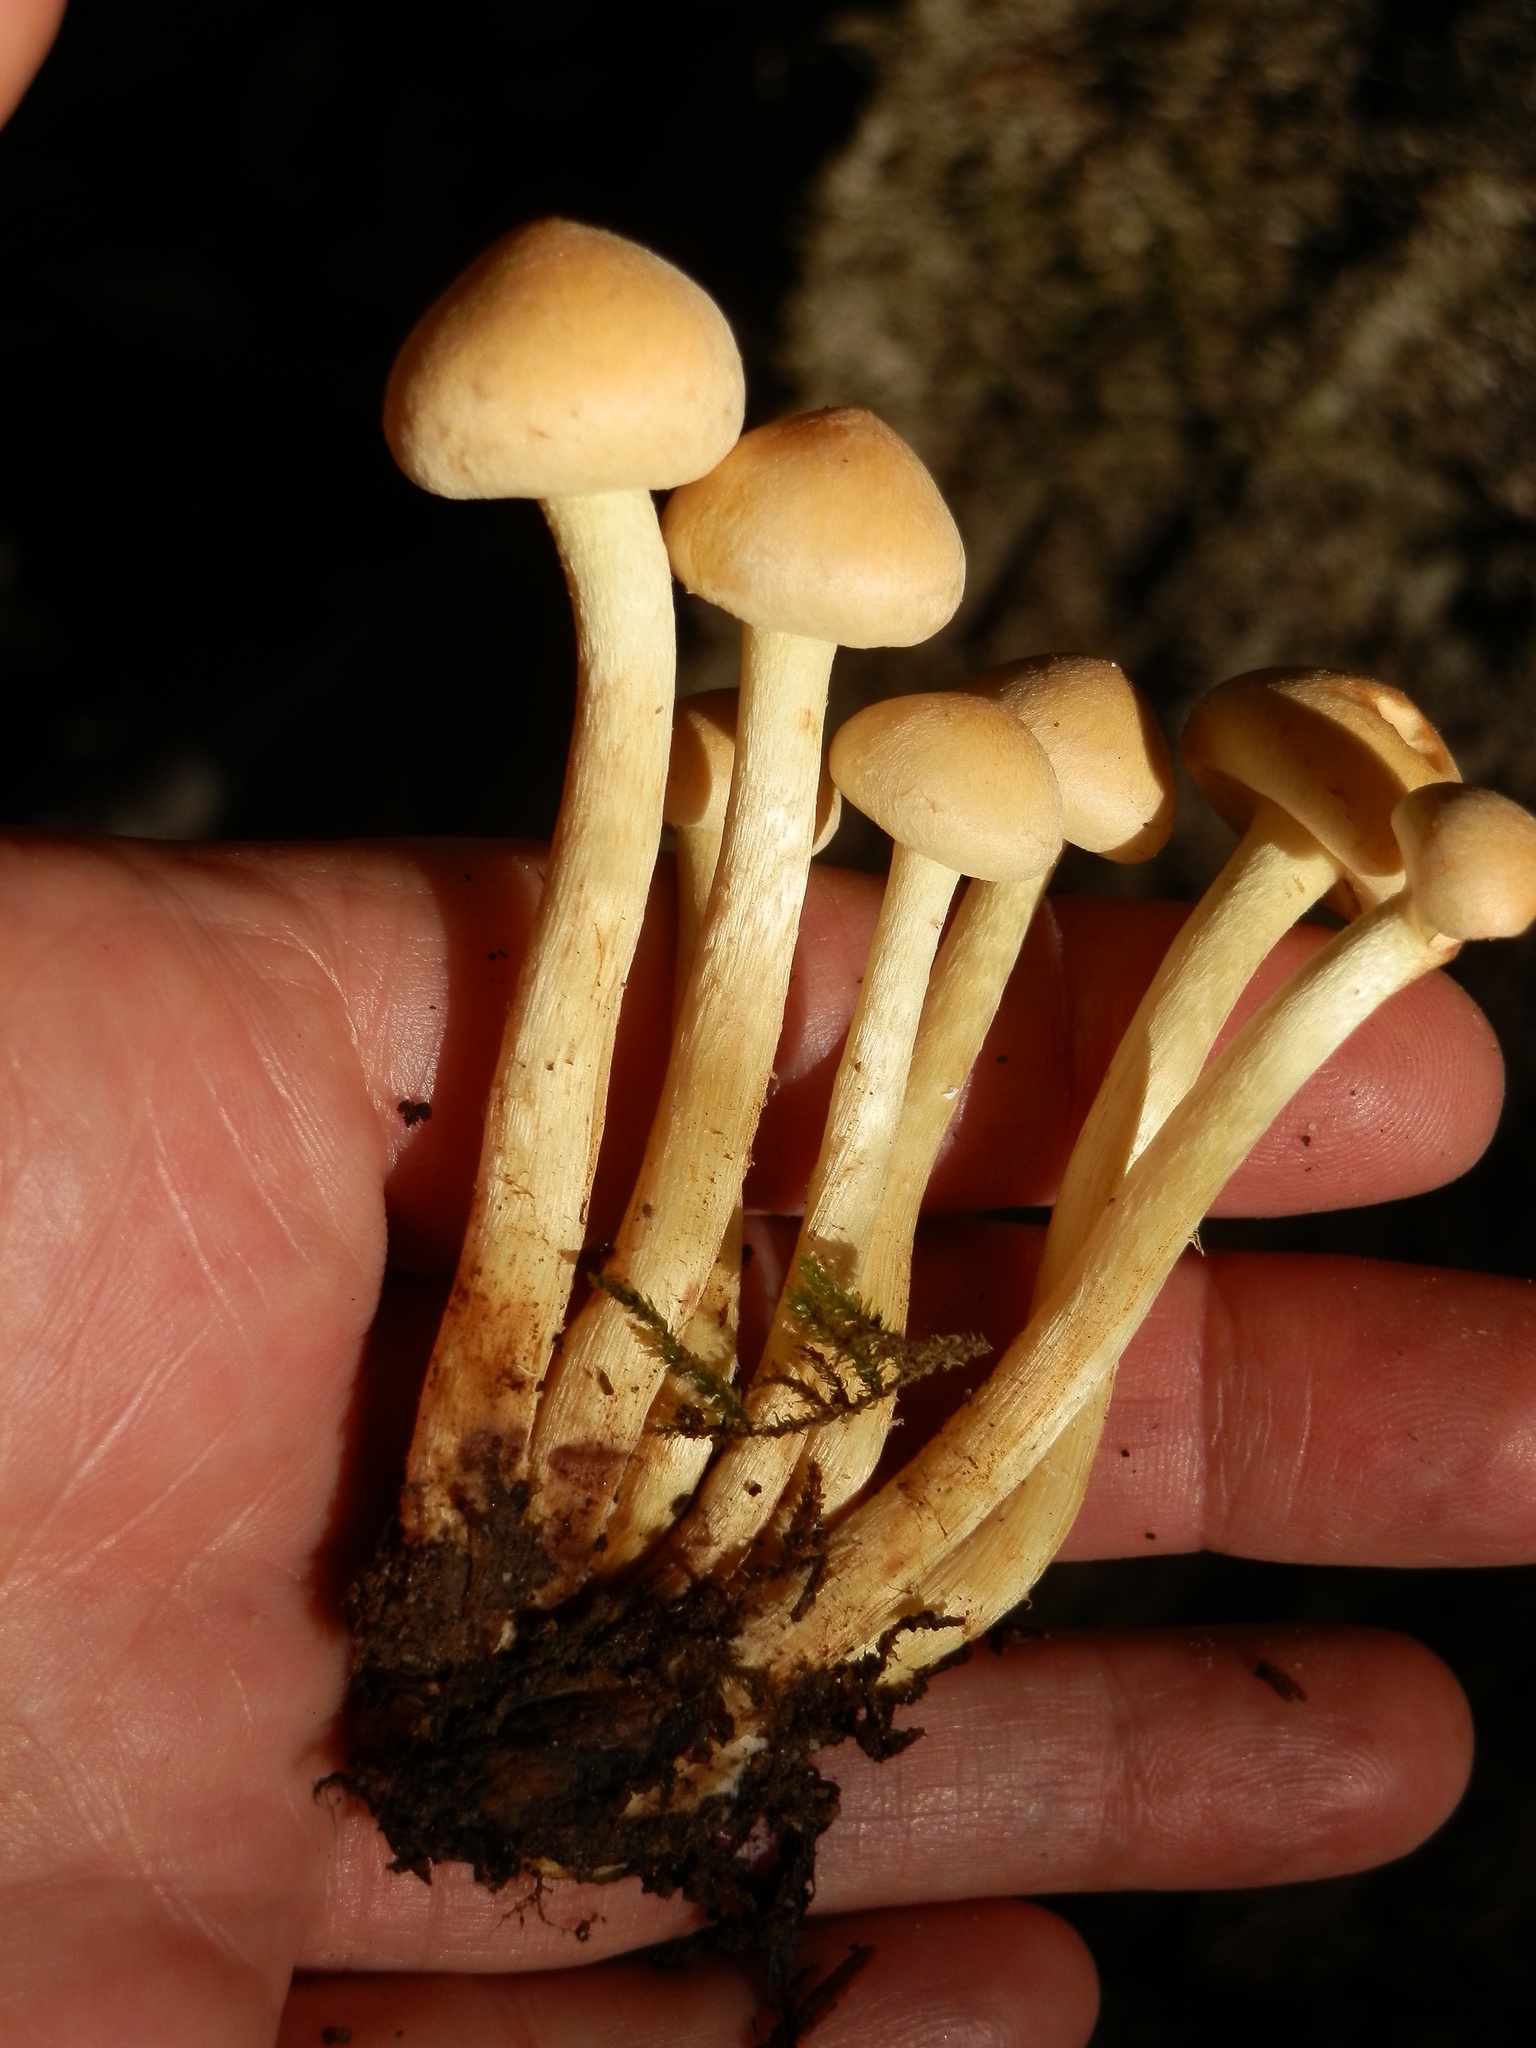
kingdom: Fungi
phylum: Basidiomycota
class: Agaricomycetes
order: Agaricales
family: Strophariaceae
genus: Hypholoma
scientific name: Hypholoma fasciculare
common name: Sulphur tuft
